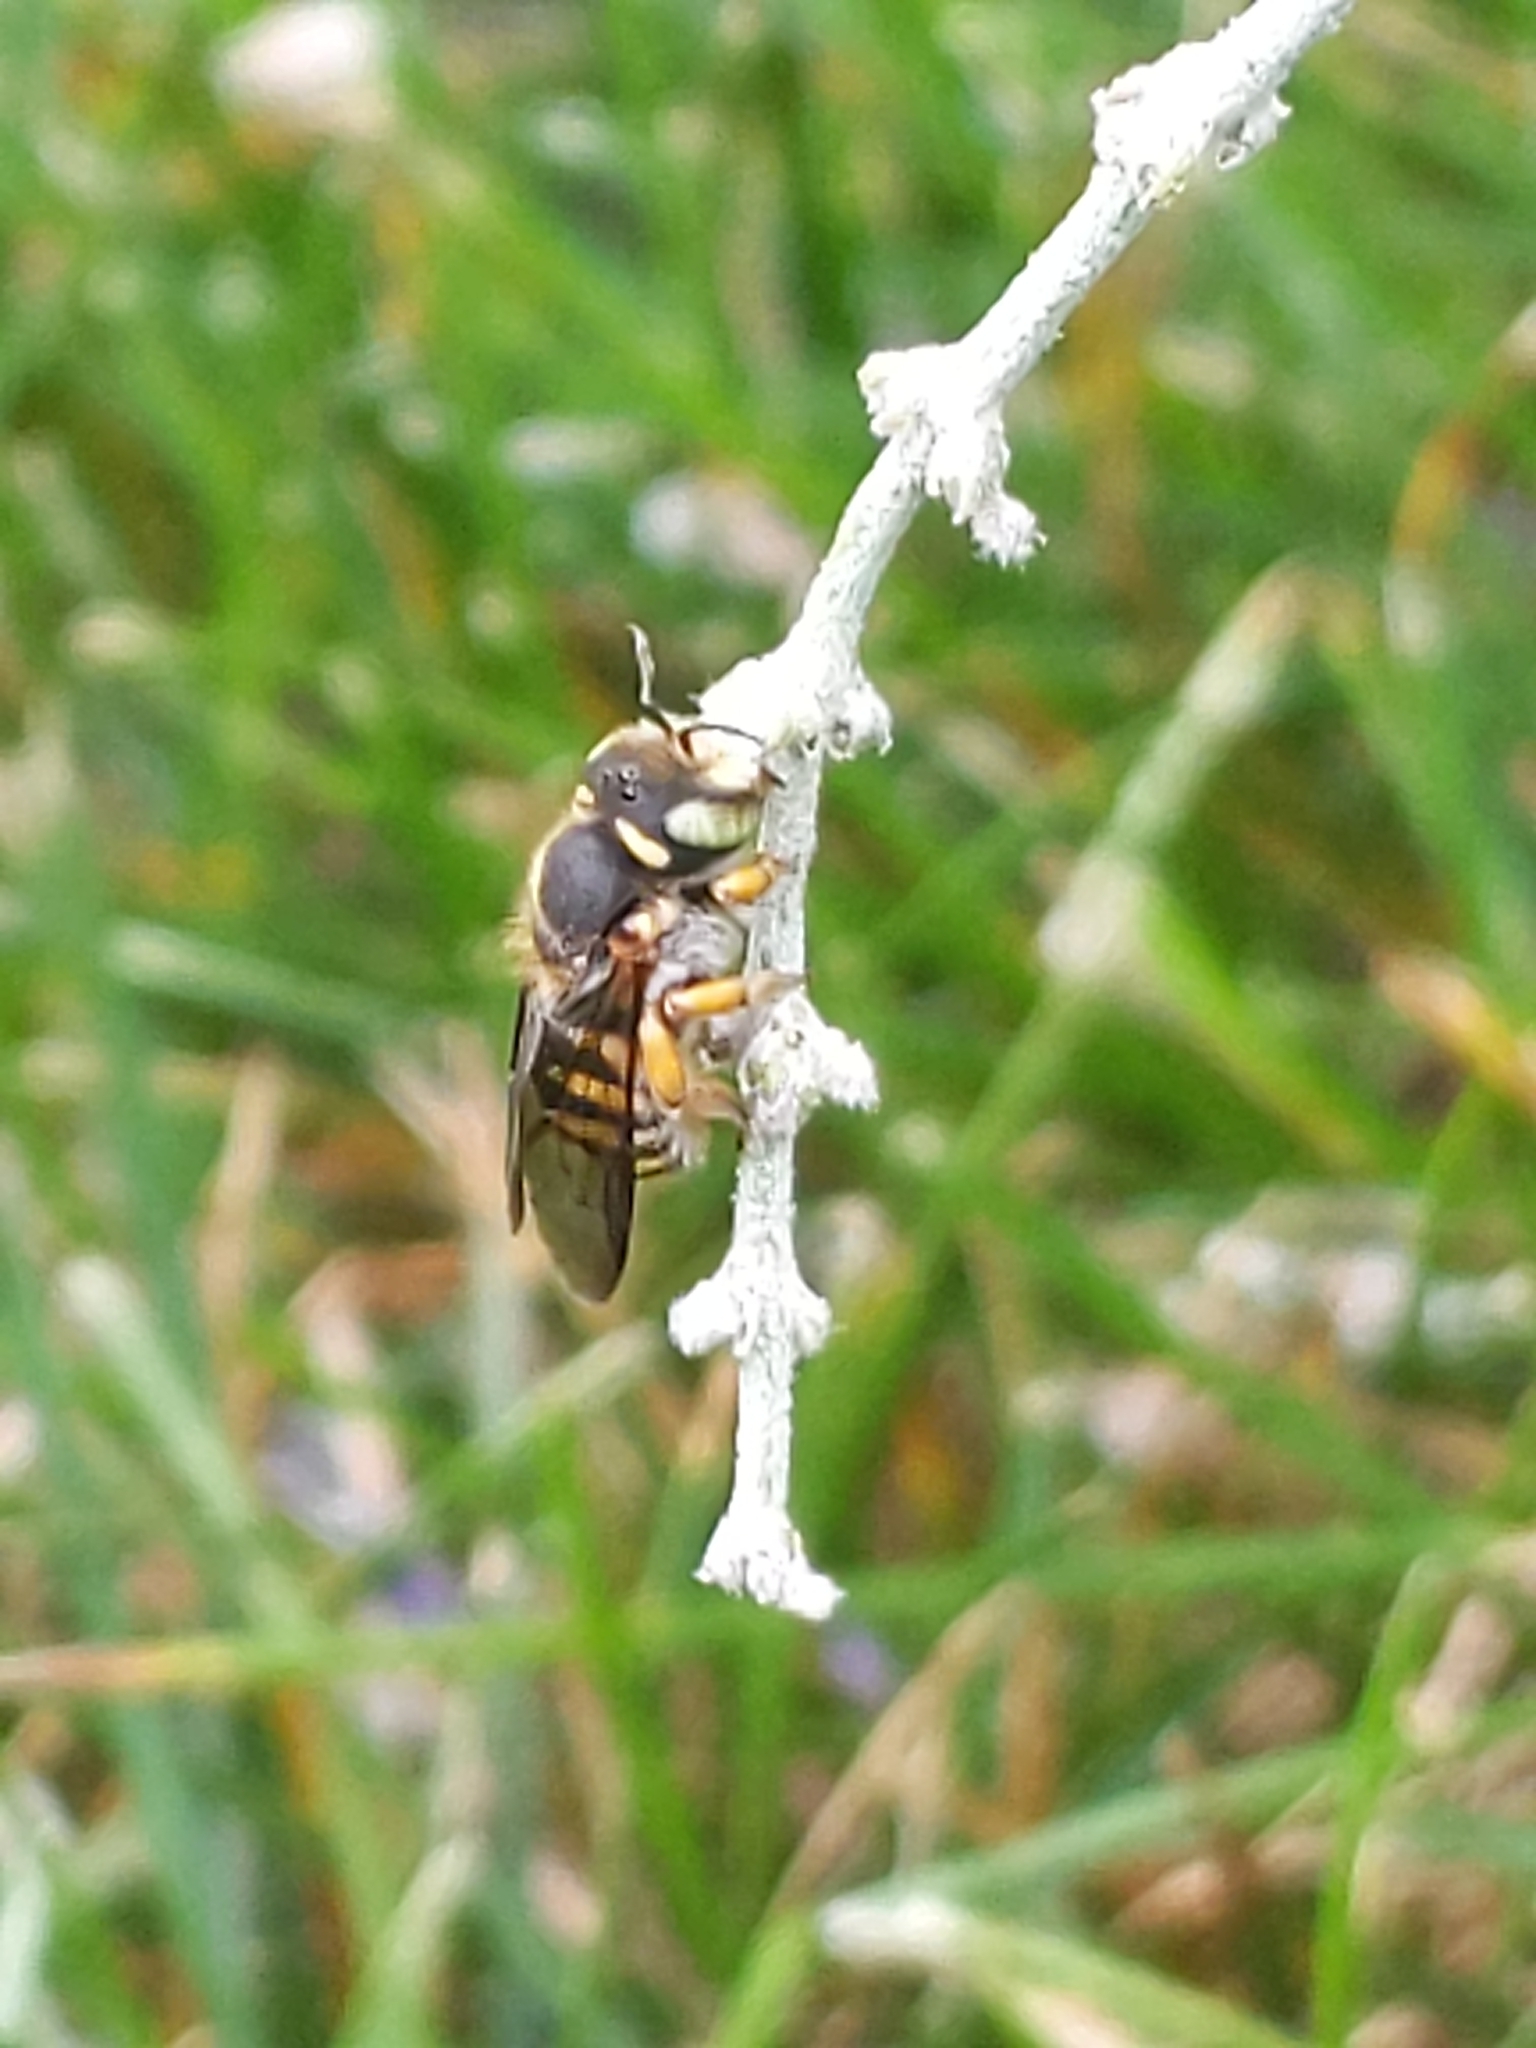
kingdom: Animalia
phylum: Arthropoda
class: Insecta
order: Hymenoptera
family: Megachilidae
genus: Anthidium
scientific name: Anthidium oblongatum
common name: Oblong wool carder bee
